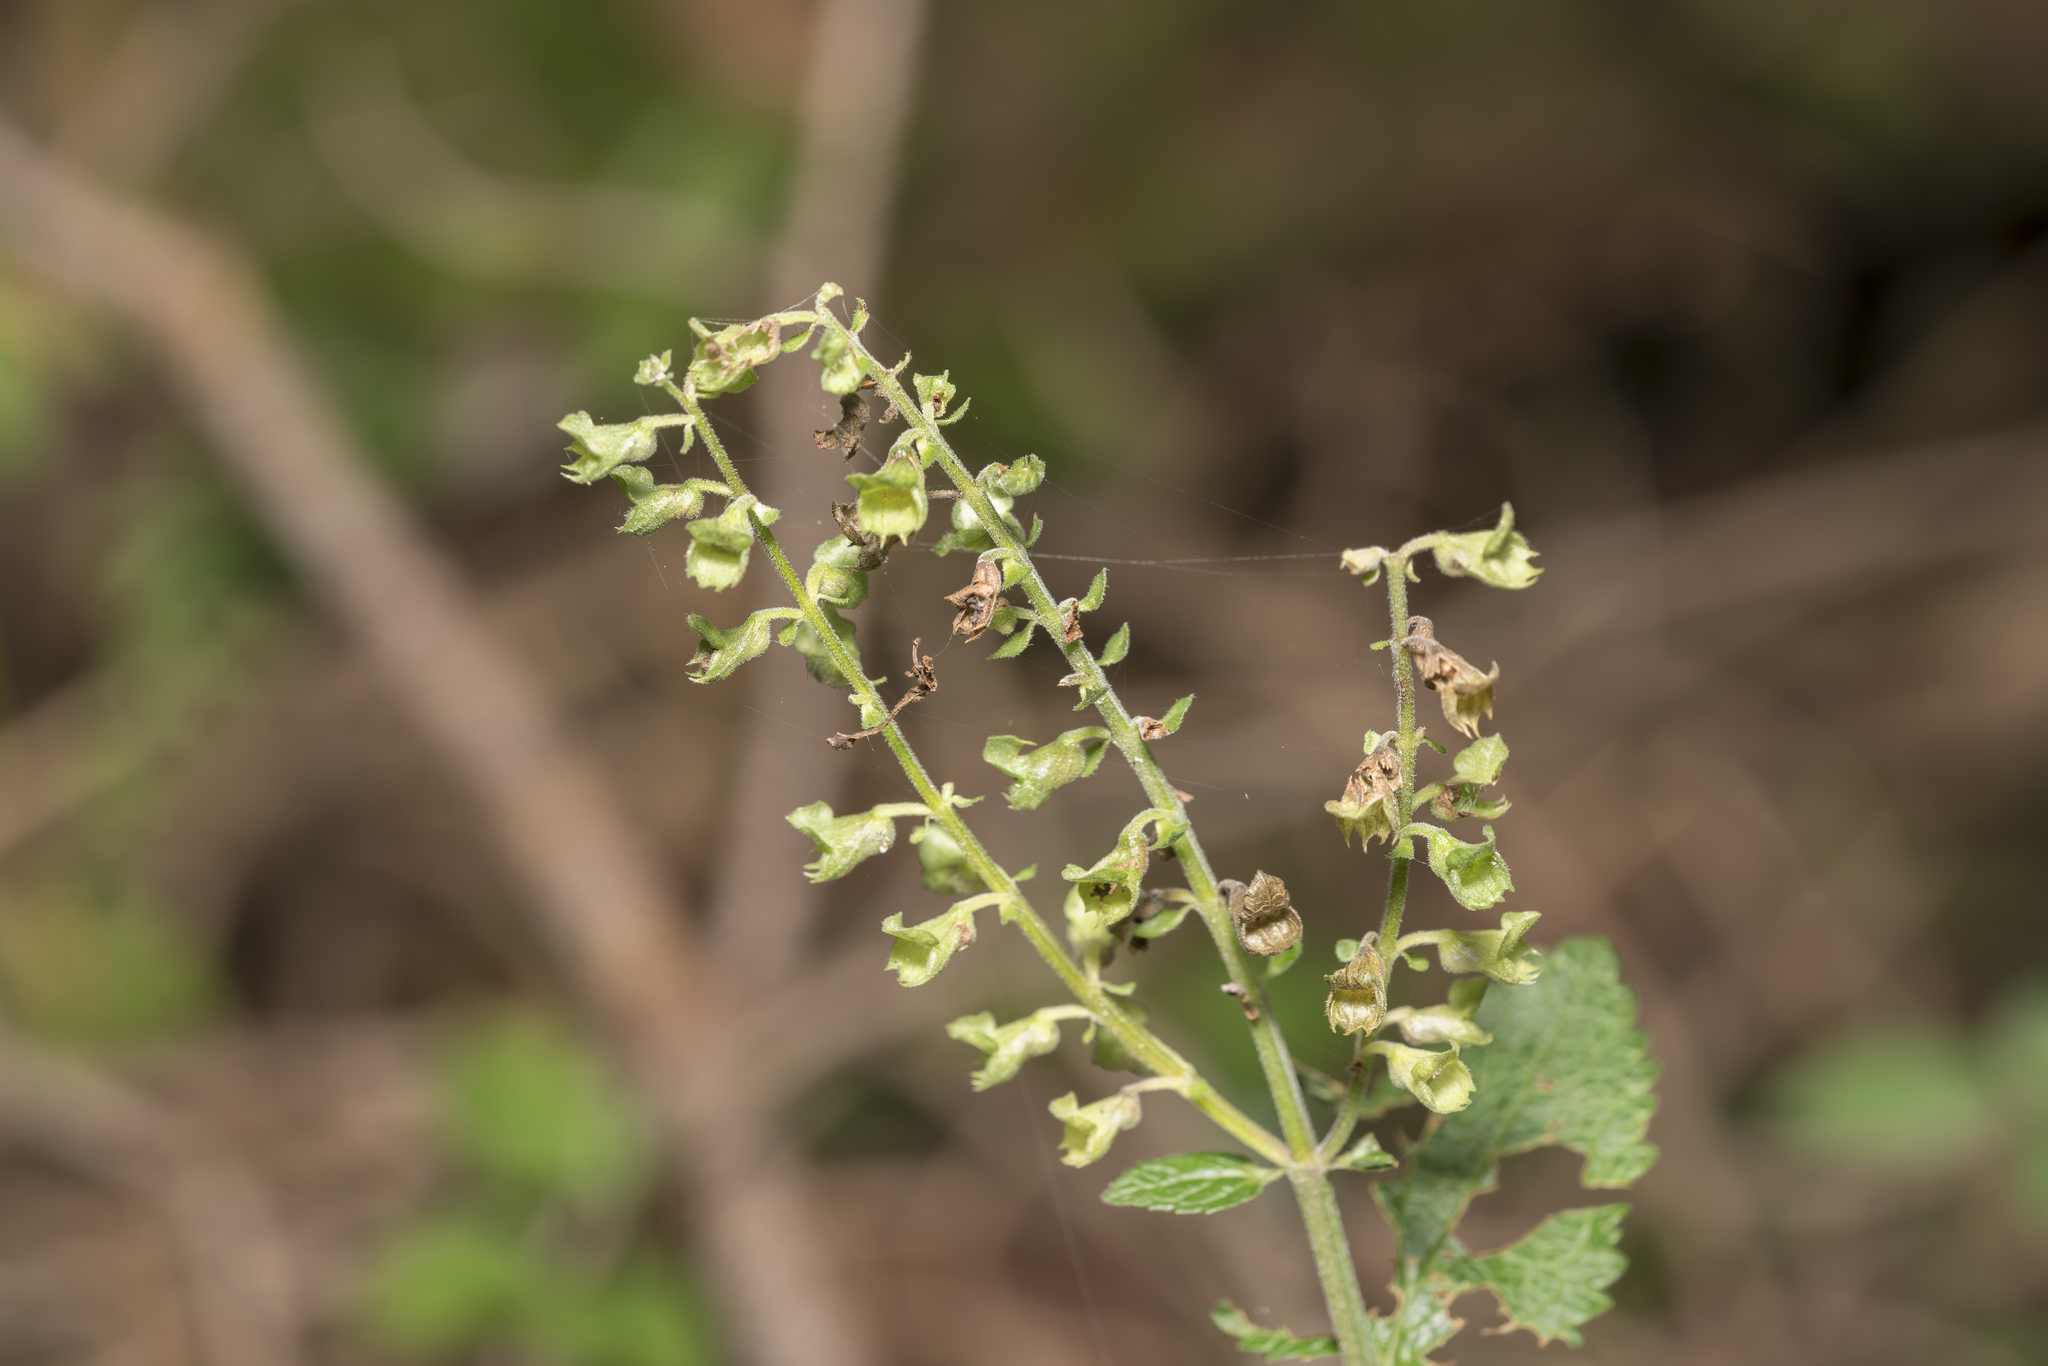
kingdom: Plantae
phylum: Tracheophyta
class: Magnoliopsida
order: Lamiales
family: Lamiaceae
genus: Teucrium
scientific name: Teucrium scorodonia
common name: Woodland germander
